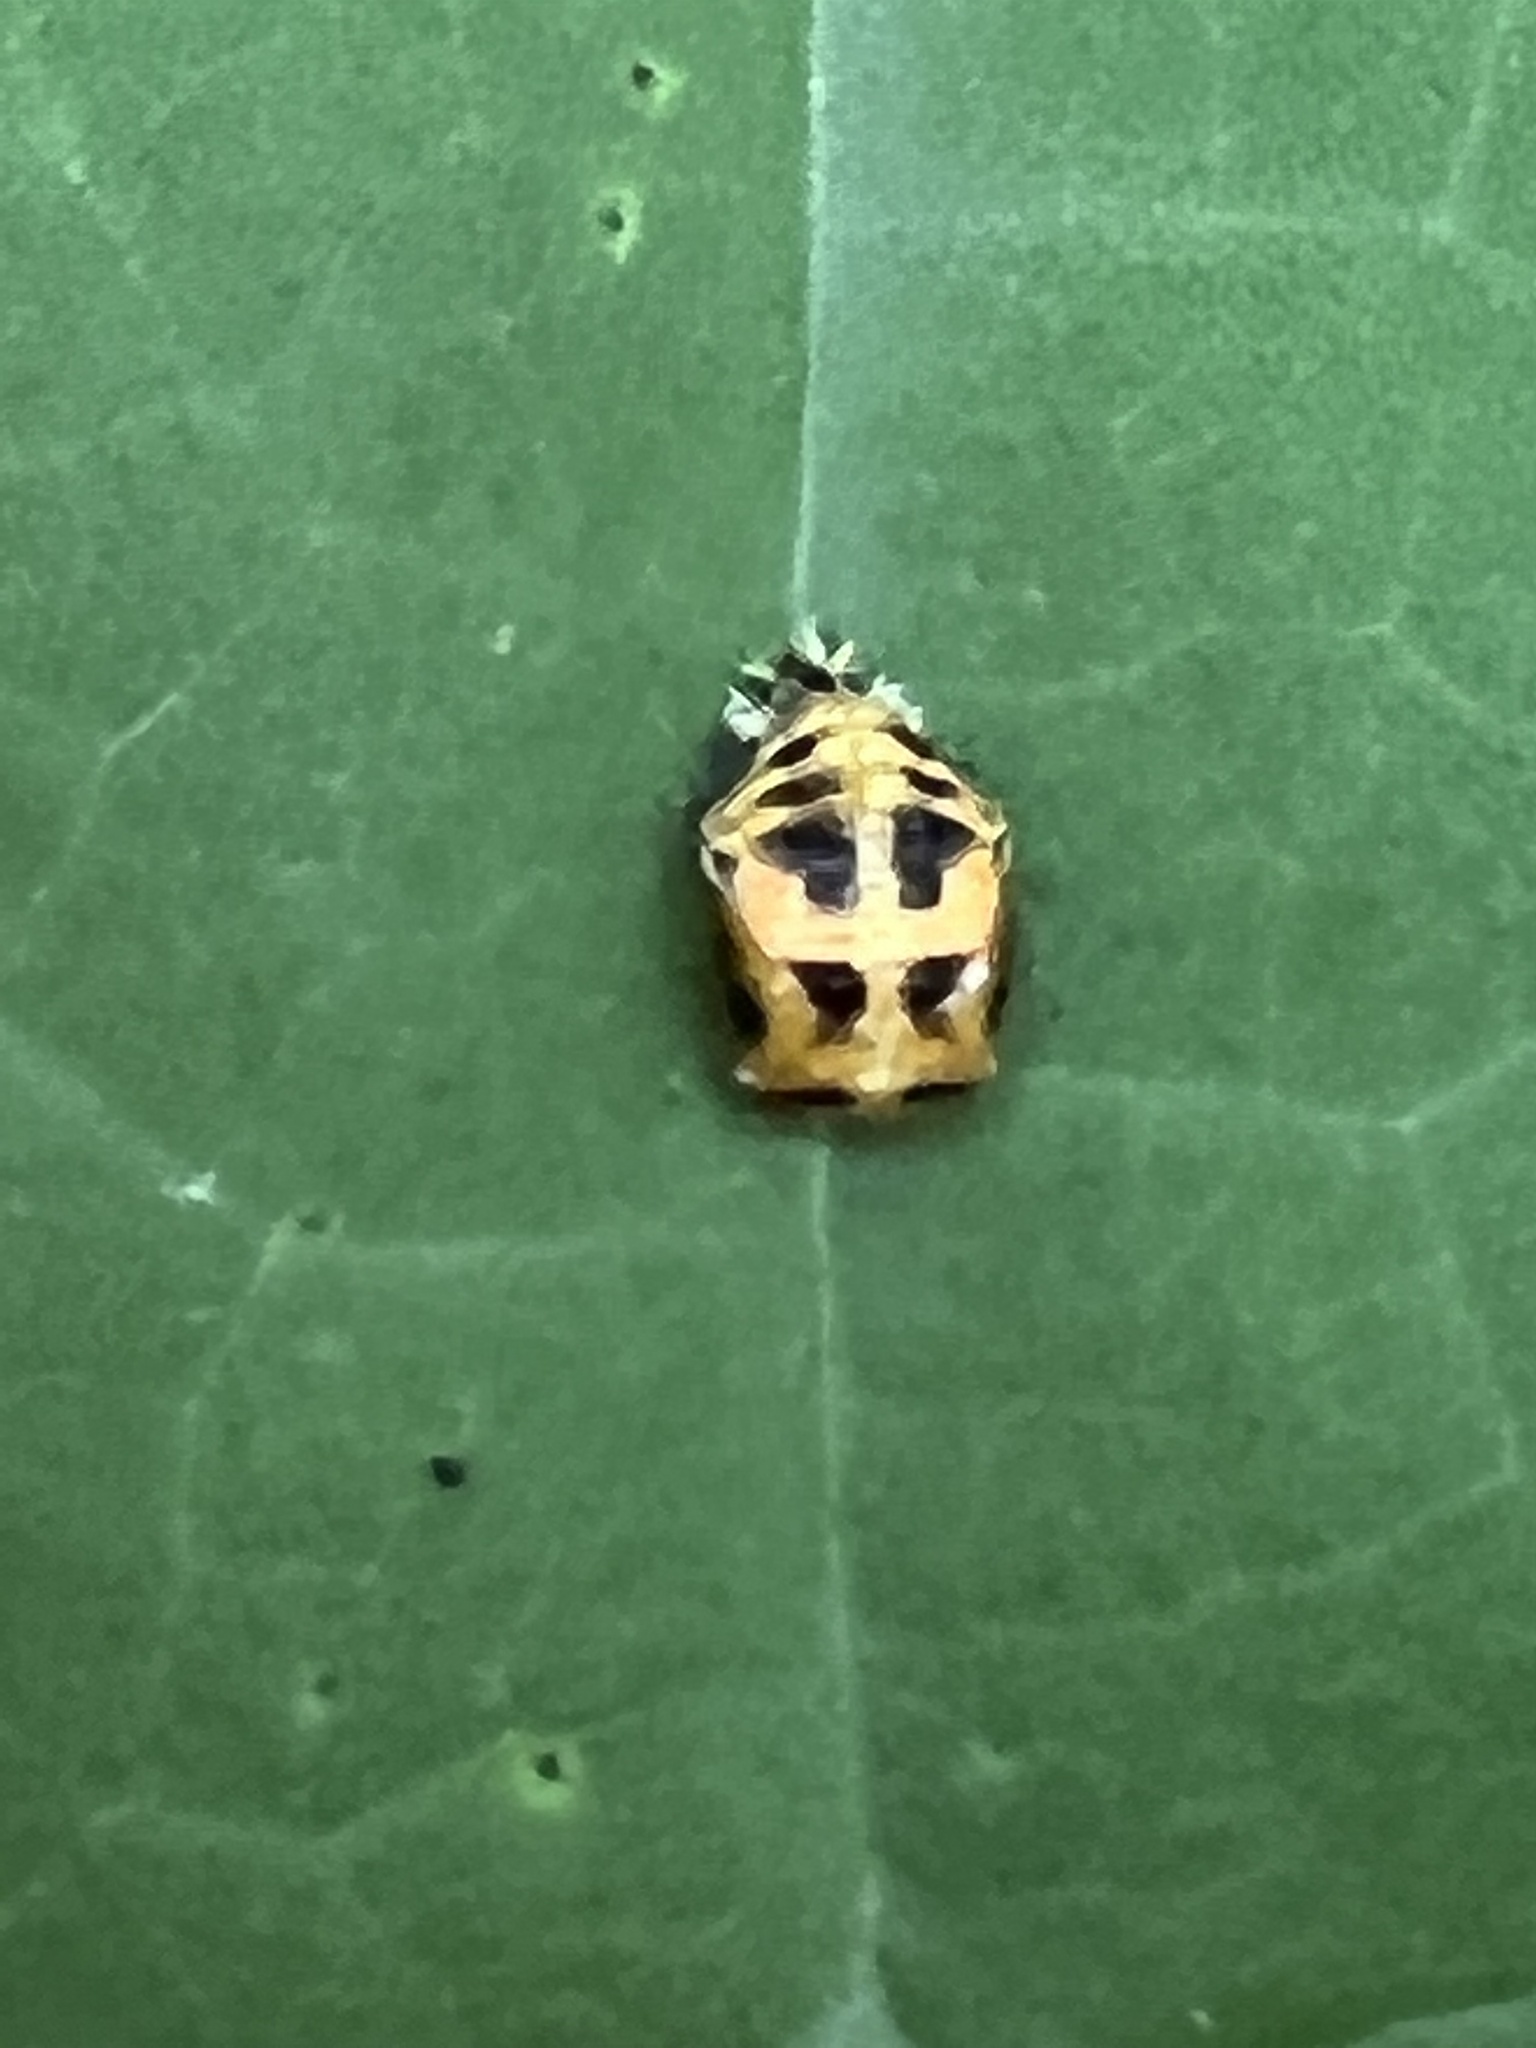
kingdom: Animalia
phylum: Arthropoda
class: Insecta
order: Coleoptera
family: Coccinellidae
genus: Harmonia
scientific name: Harmonia axyridis
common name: Harlequin ladybird
